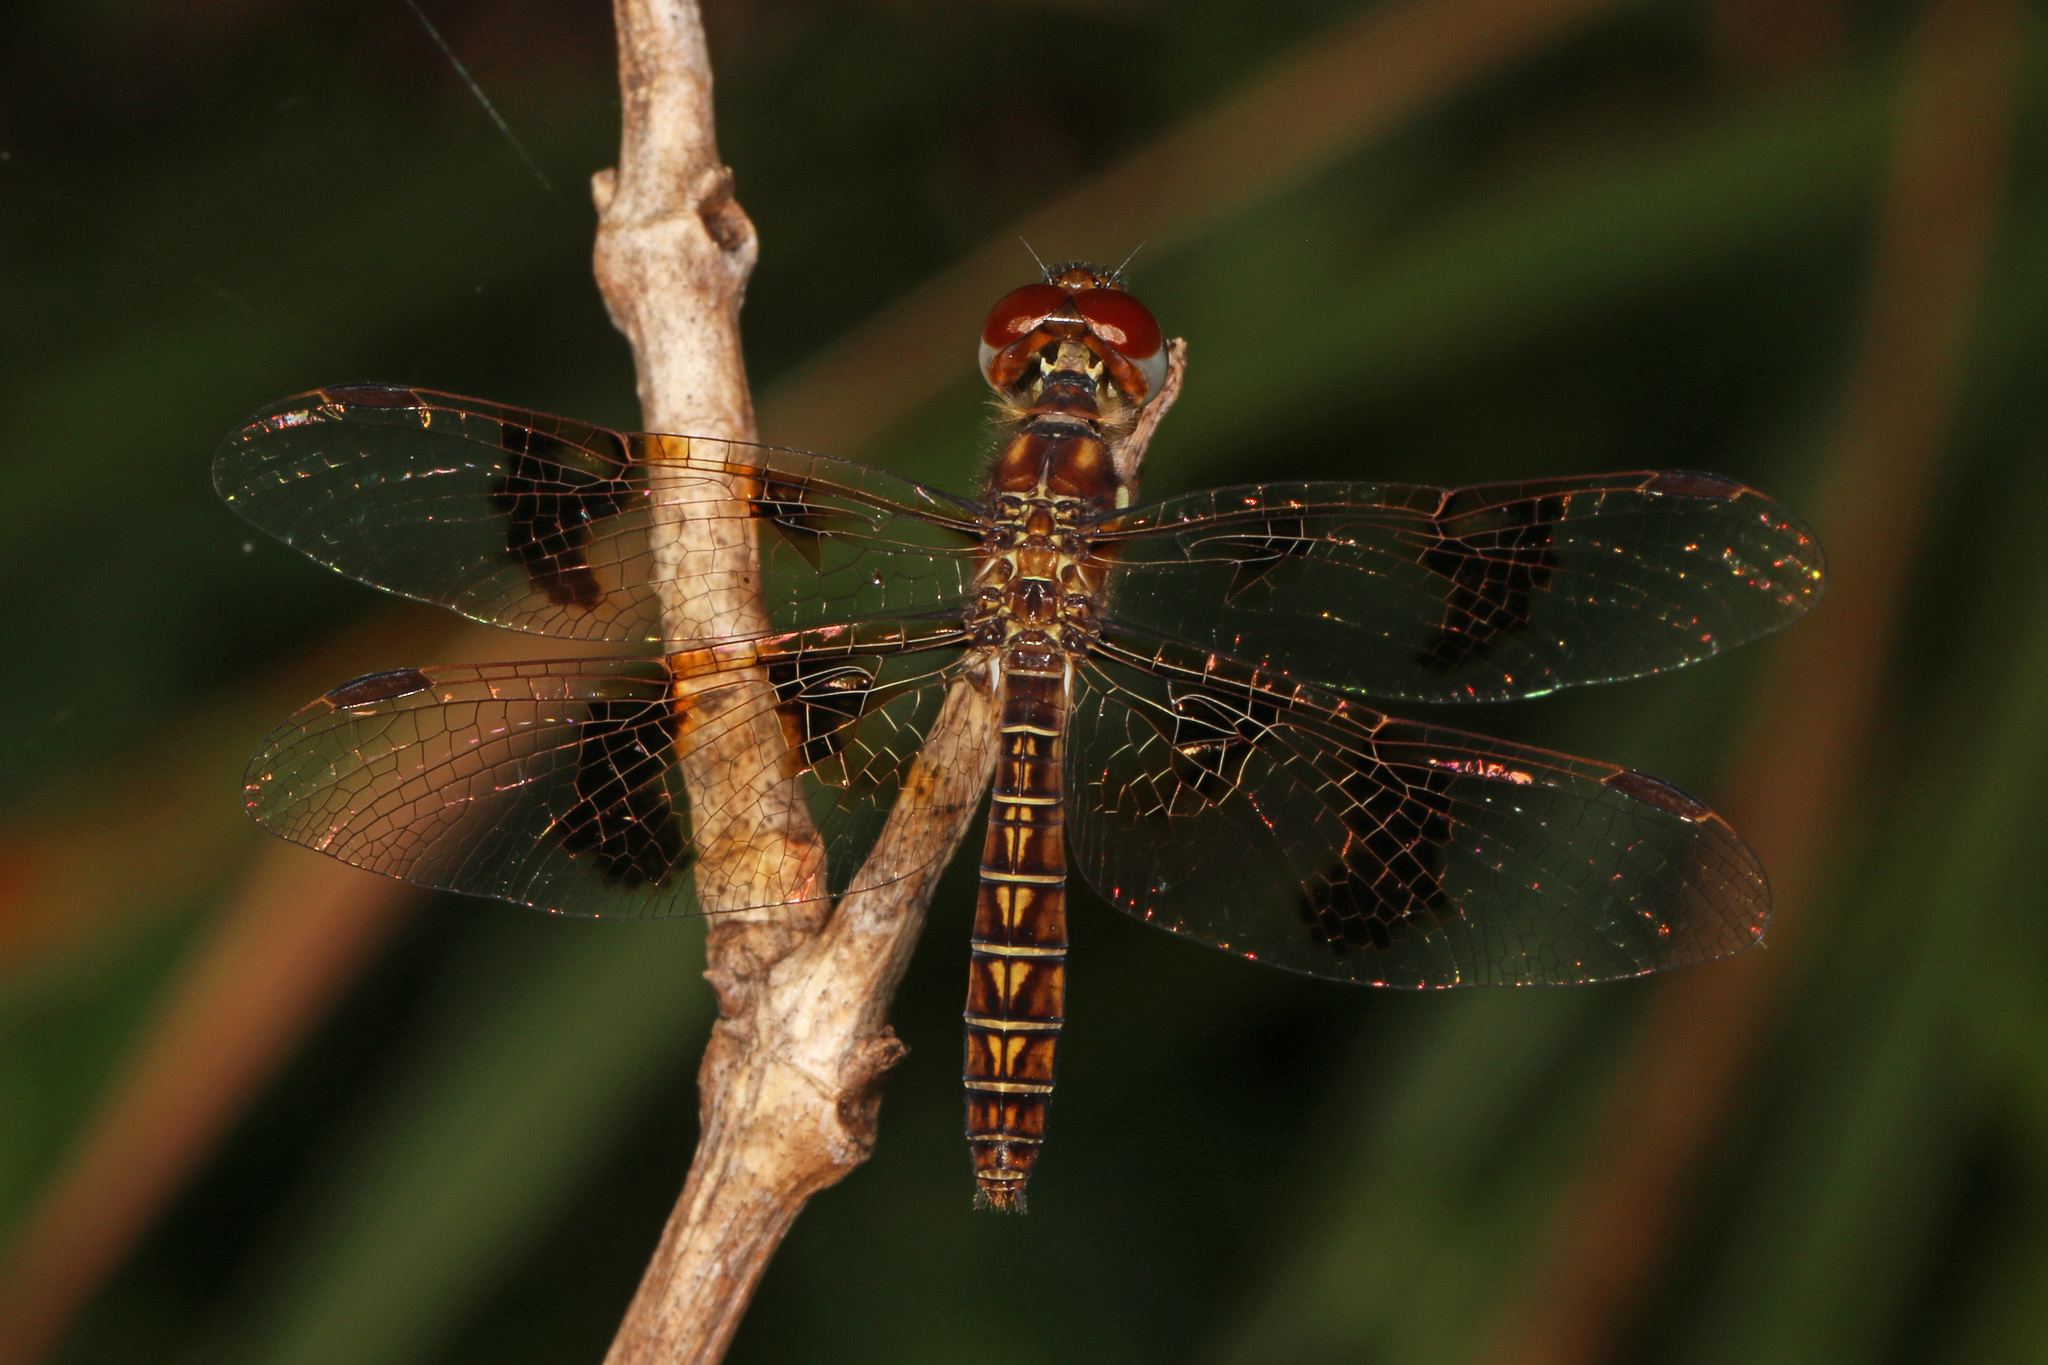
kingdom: Animalia
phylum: Arthropoda
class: Insecta
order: Odonata
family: Libellulidae
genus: Perithemis
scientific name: Perithemis tenera
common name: Eastern amberwing
